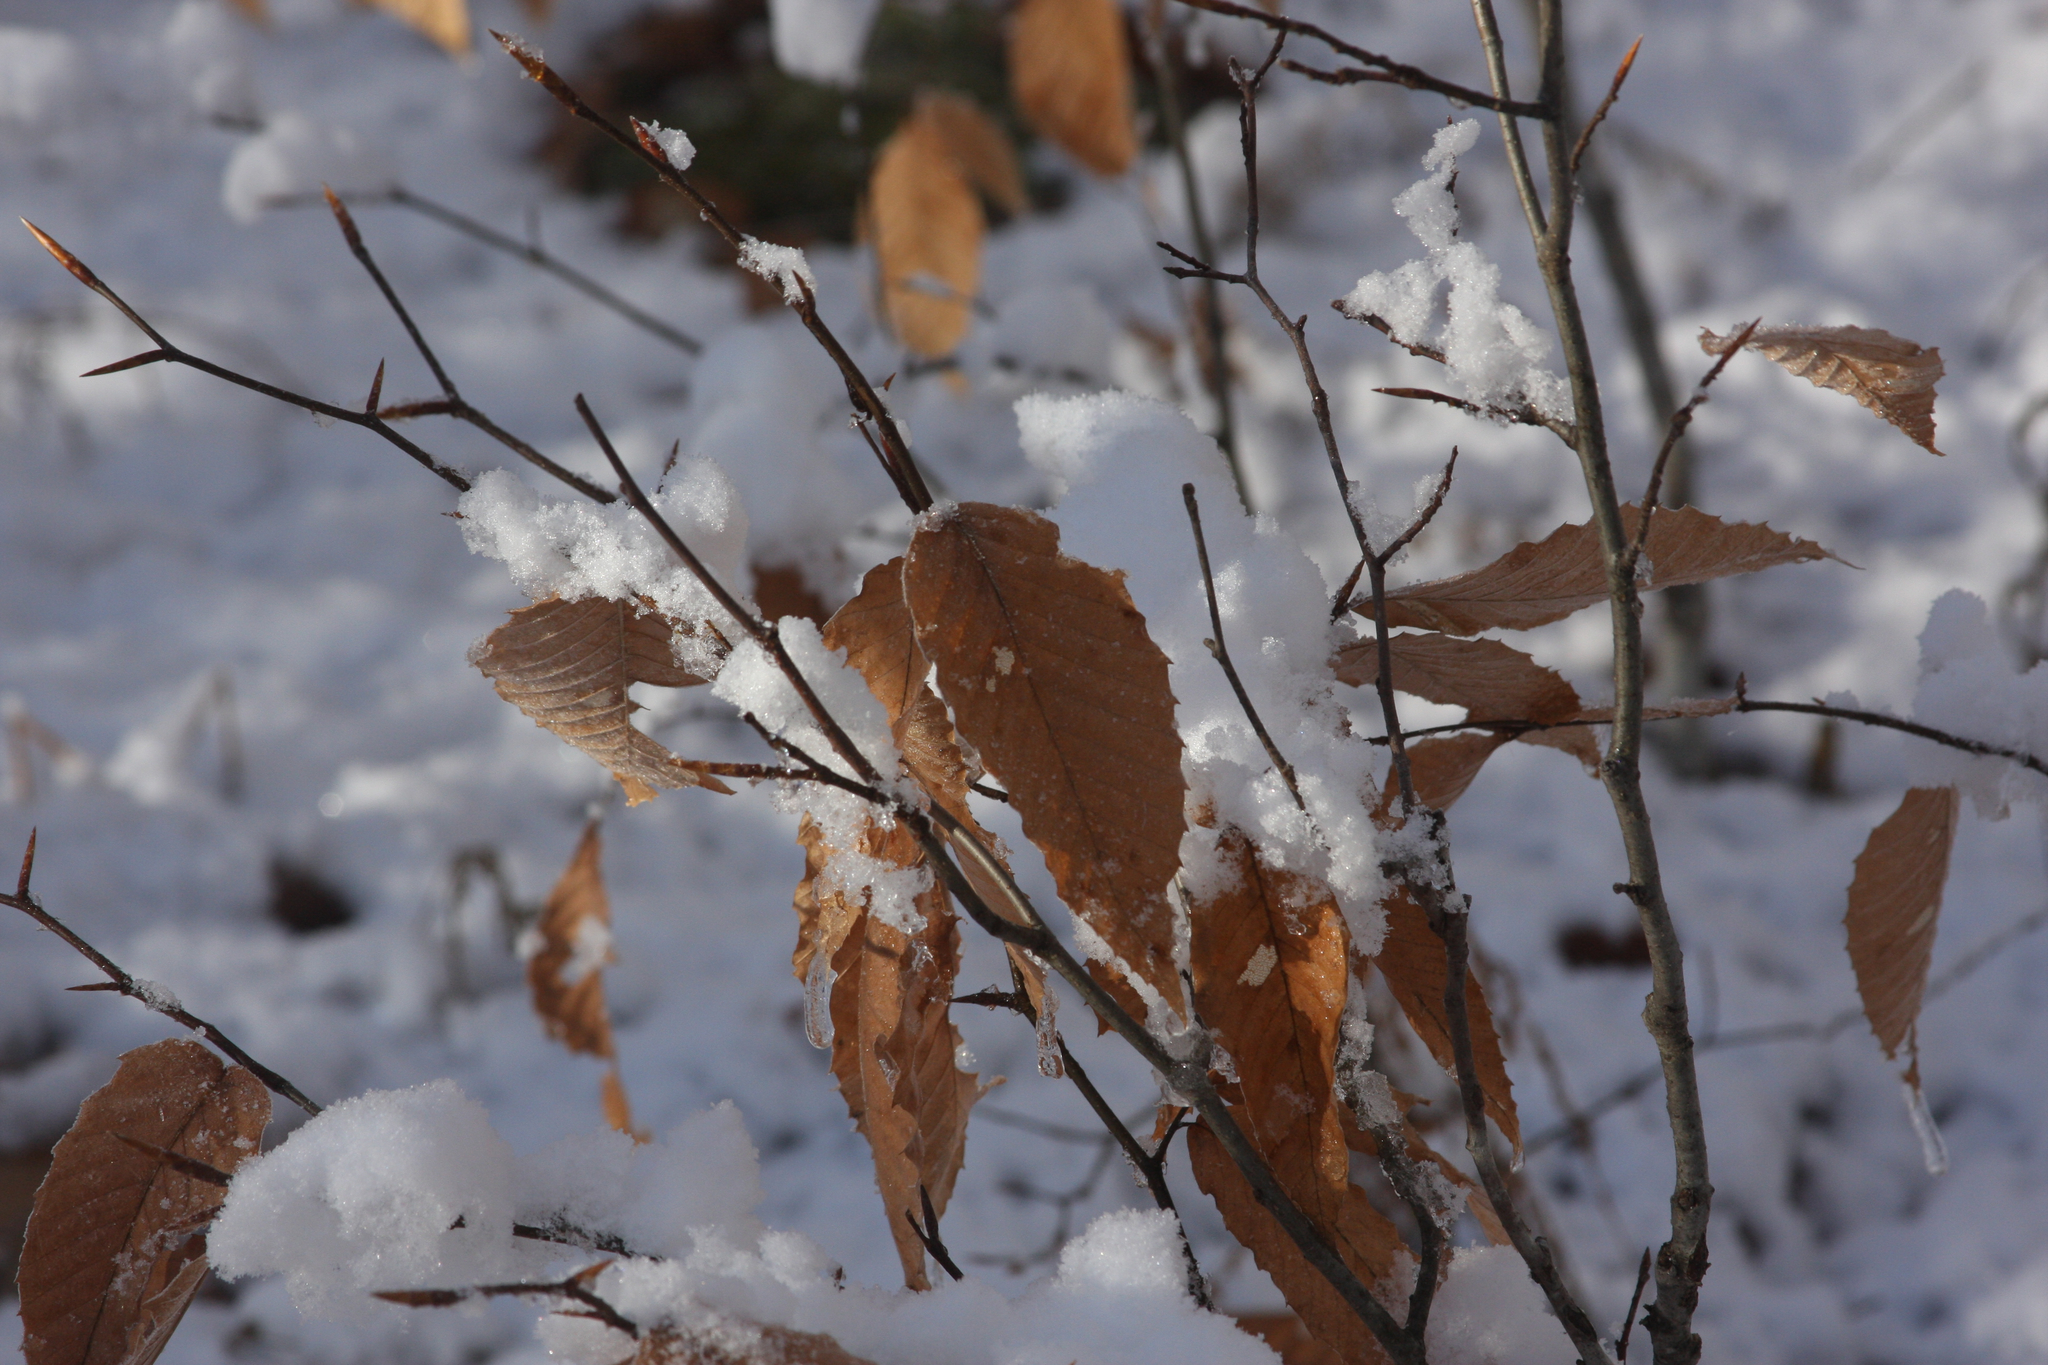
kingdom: Plantae
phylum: Tracheophyta
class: Magnoliopsida
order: Fagales
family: Fagaceae
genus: Fagus
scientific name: Fagus grandifolia
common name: American beech
